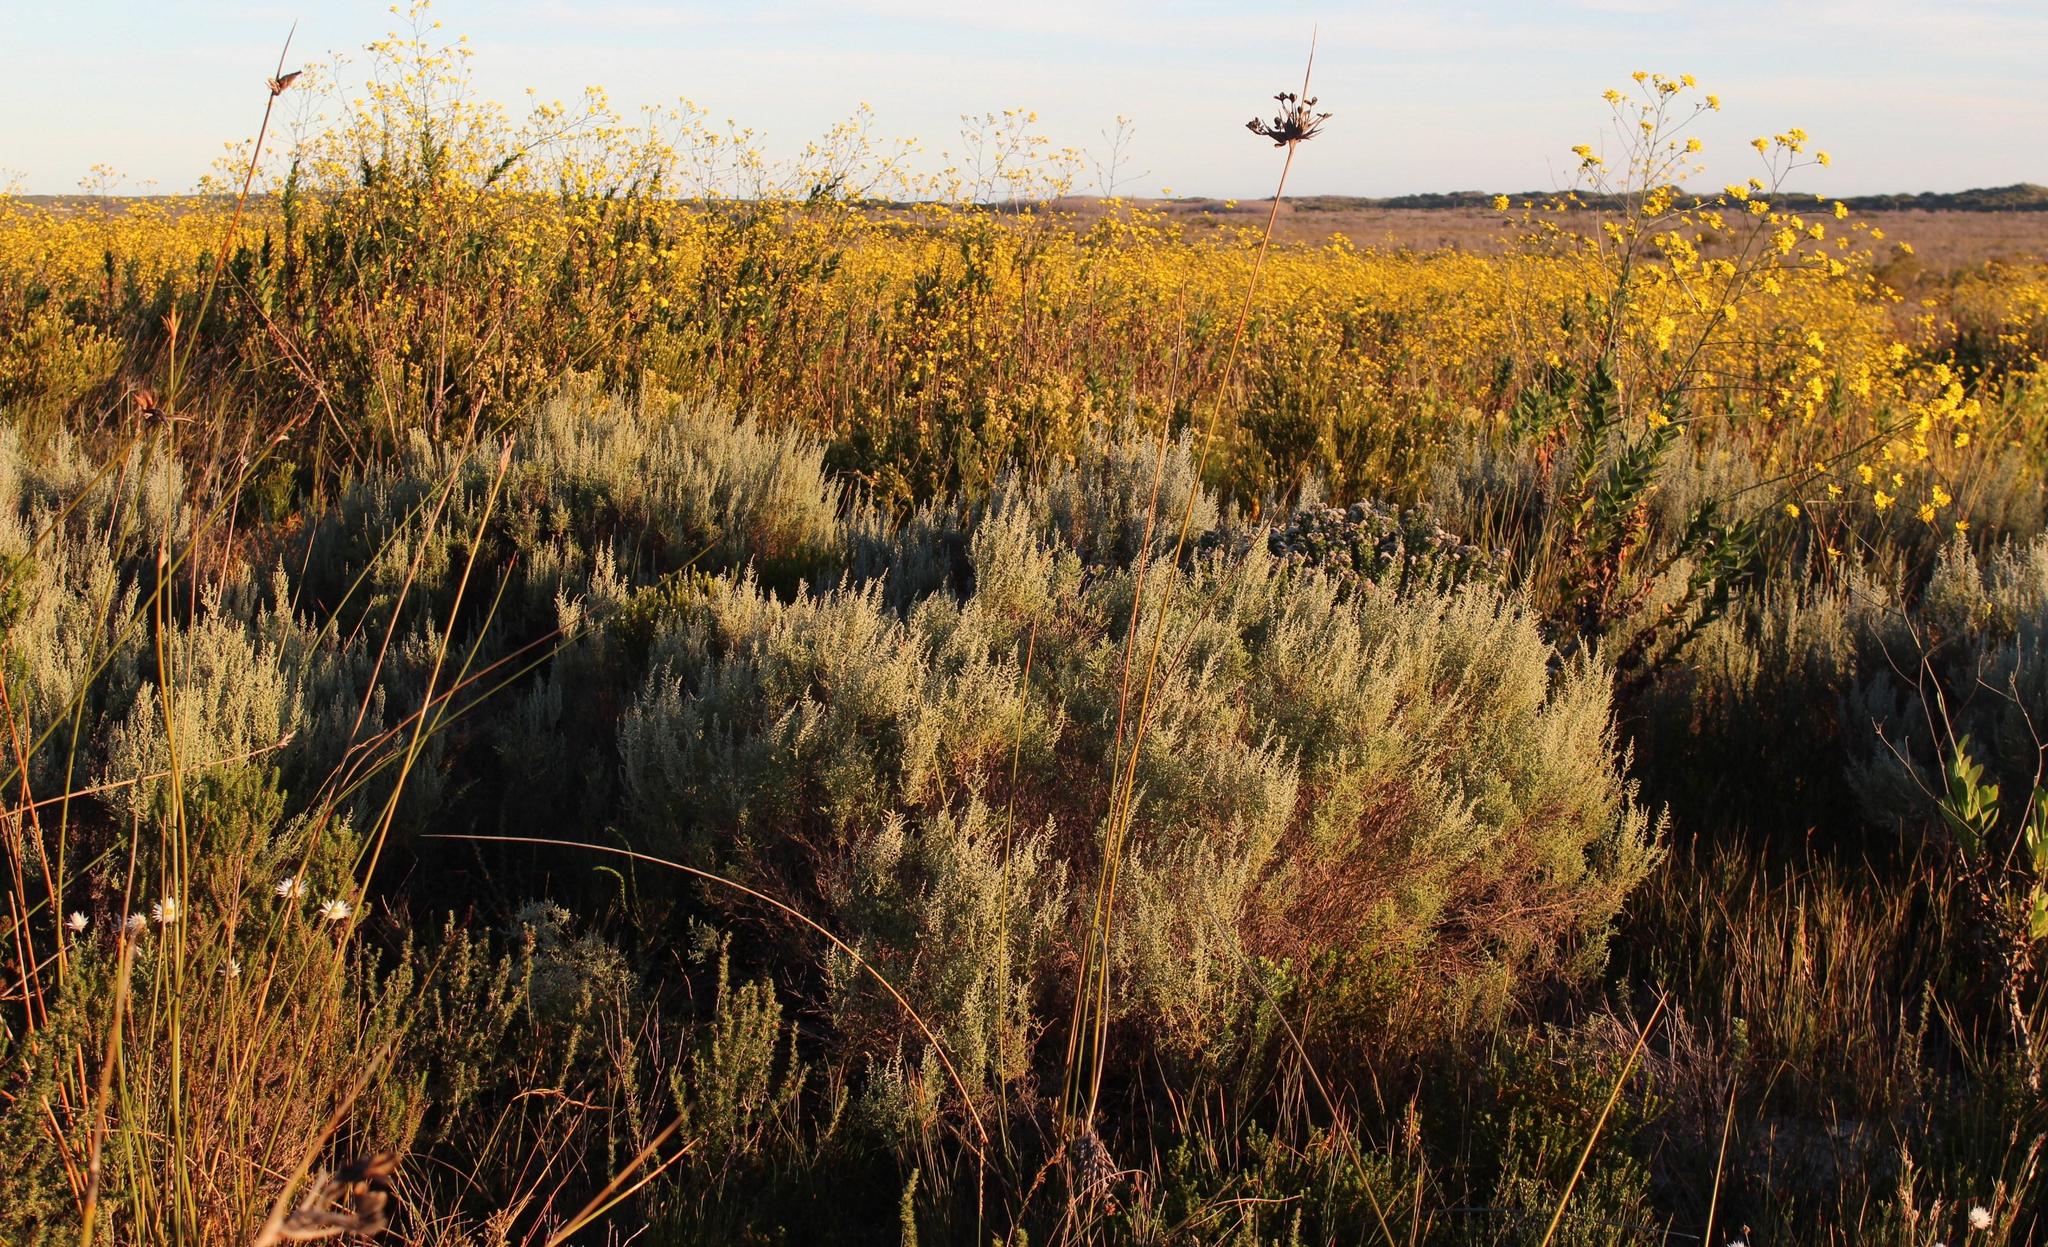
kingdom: Plantae
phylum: Tracheophyta
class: Magnoliopsida
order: Asterales
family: Asteraceae
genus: Seriphium
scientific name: Seriphium plumosum
